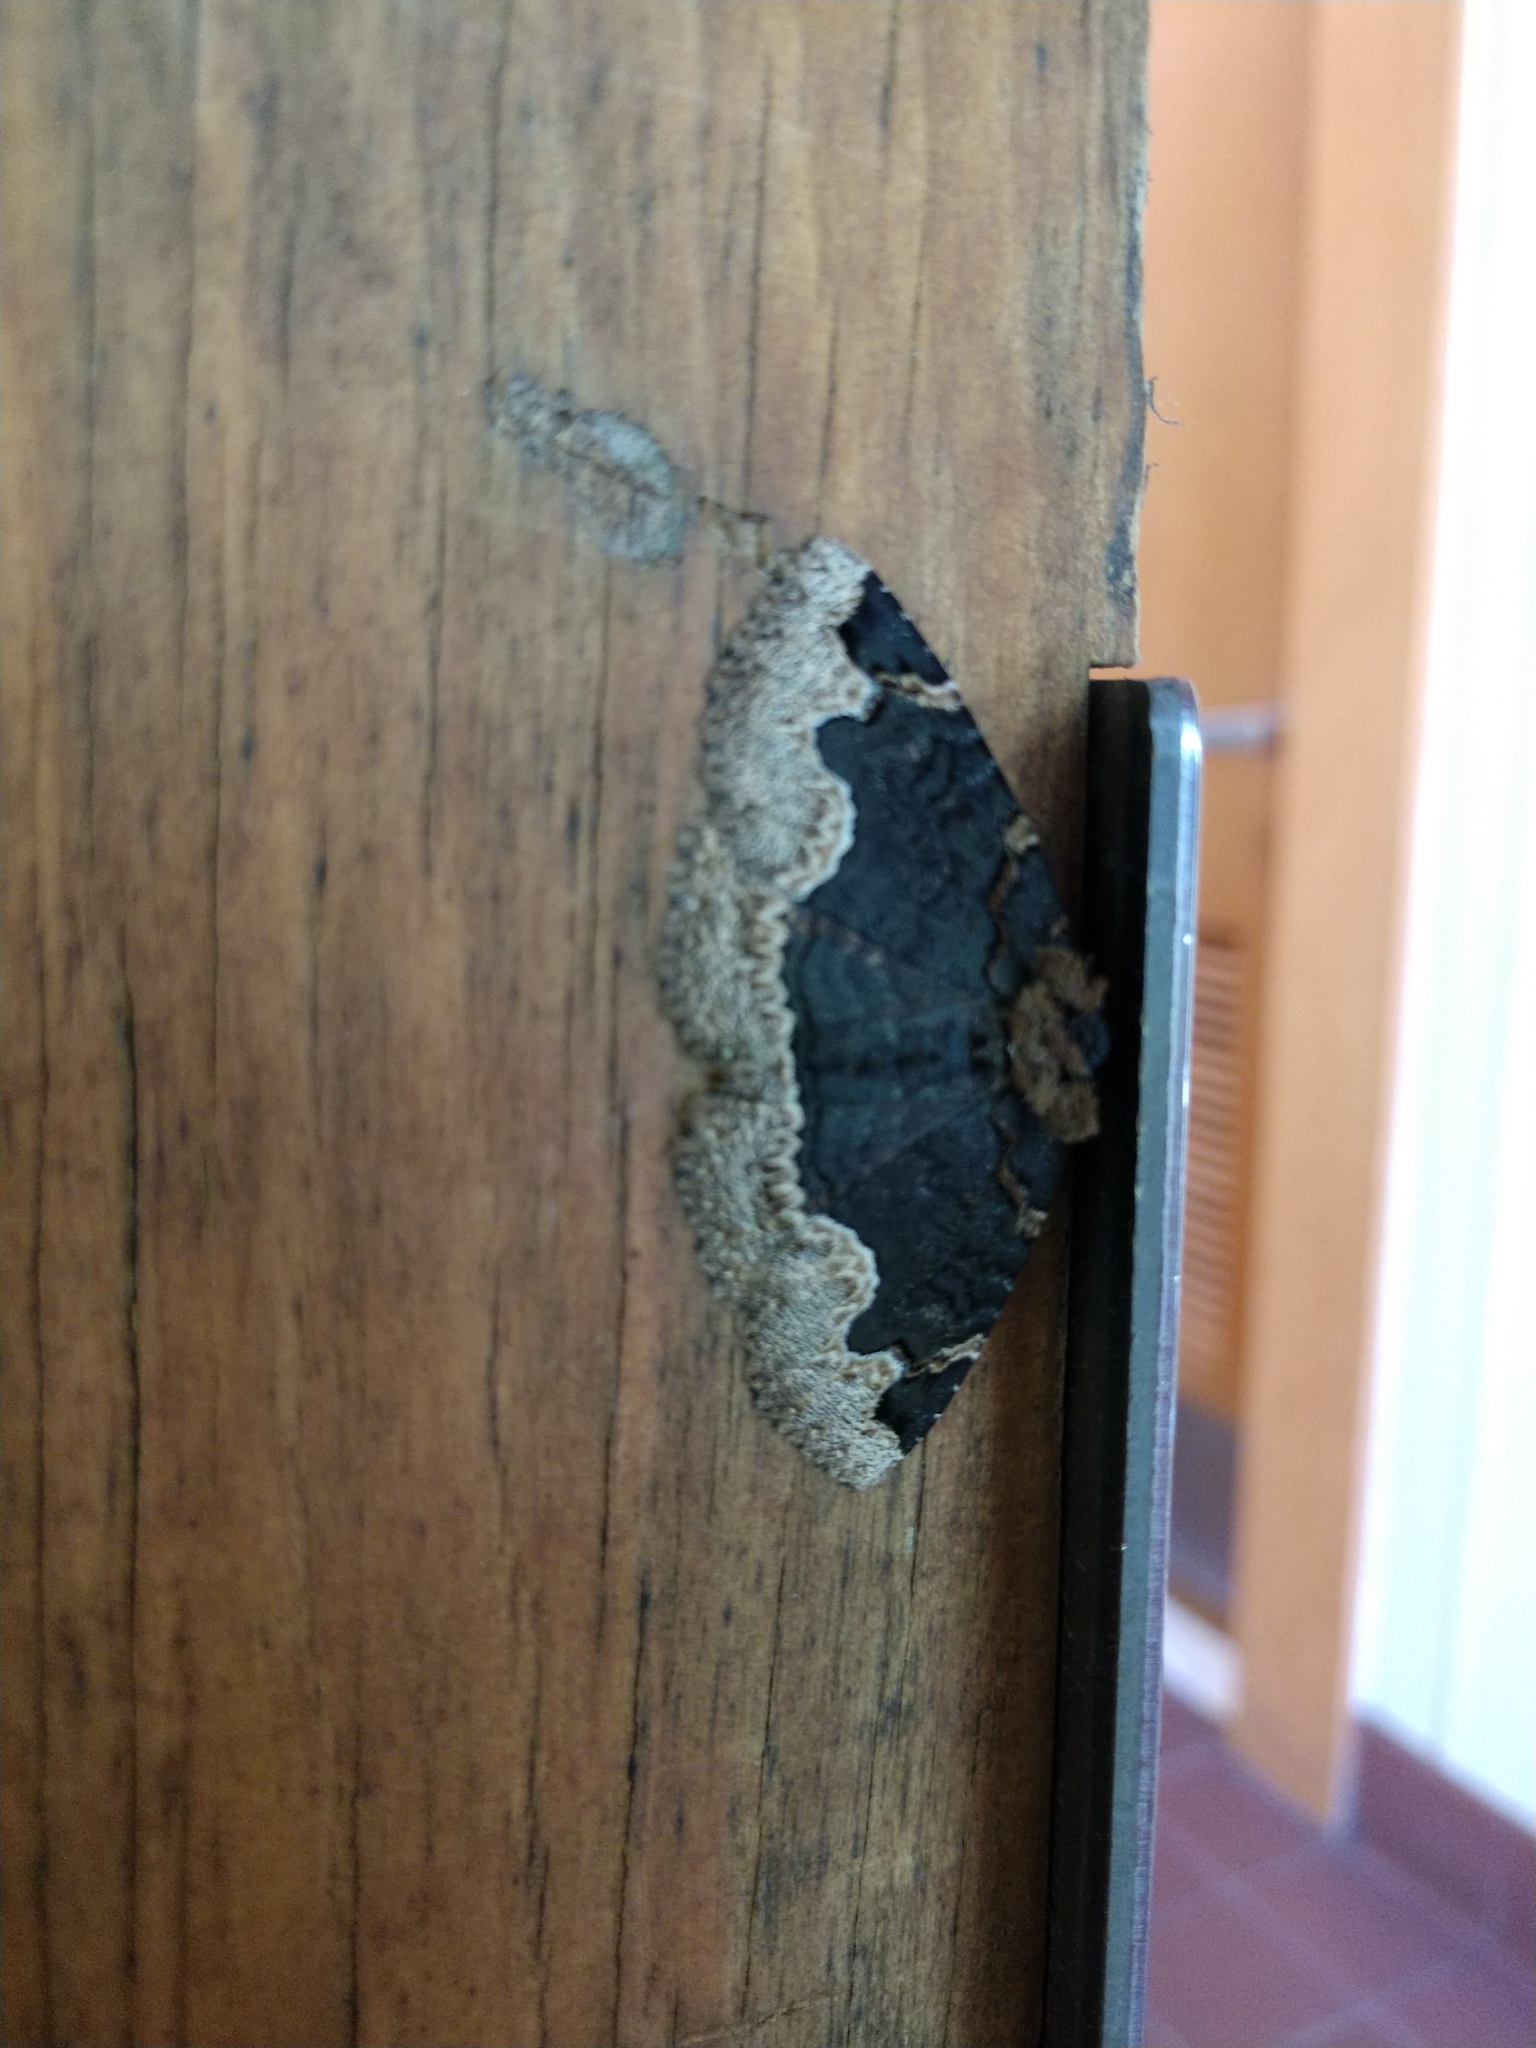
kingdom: Animalia
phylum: Arthropoda
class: Insecta
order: Lepidoptera
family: Erebidae
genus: Zale
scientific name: Zale horrida
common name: Horrid zale moth
